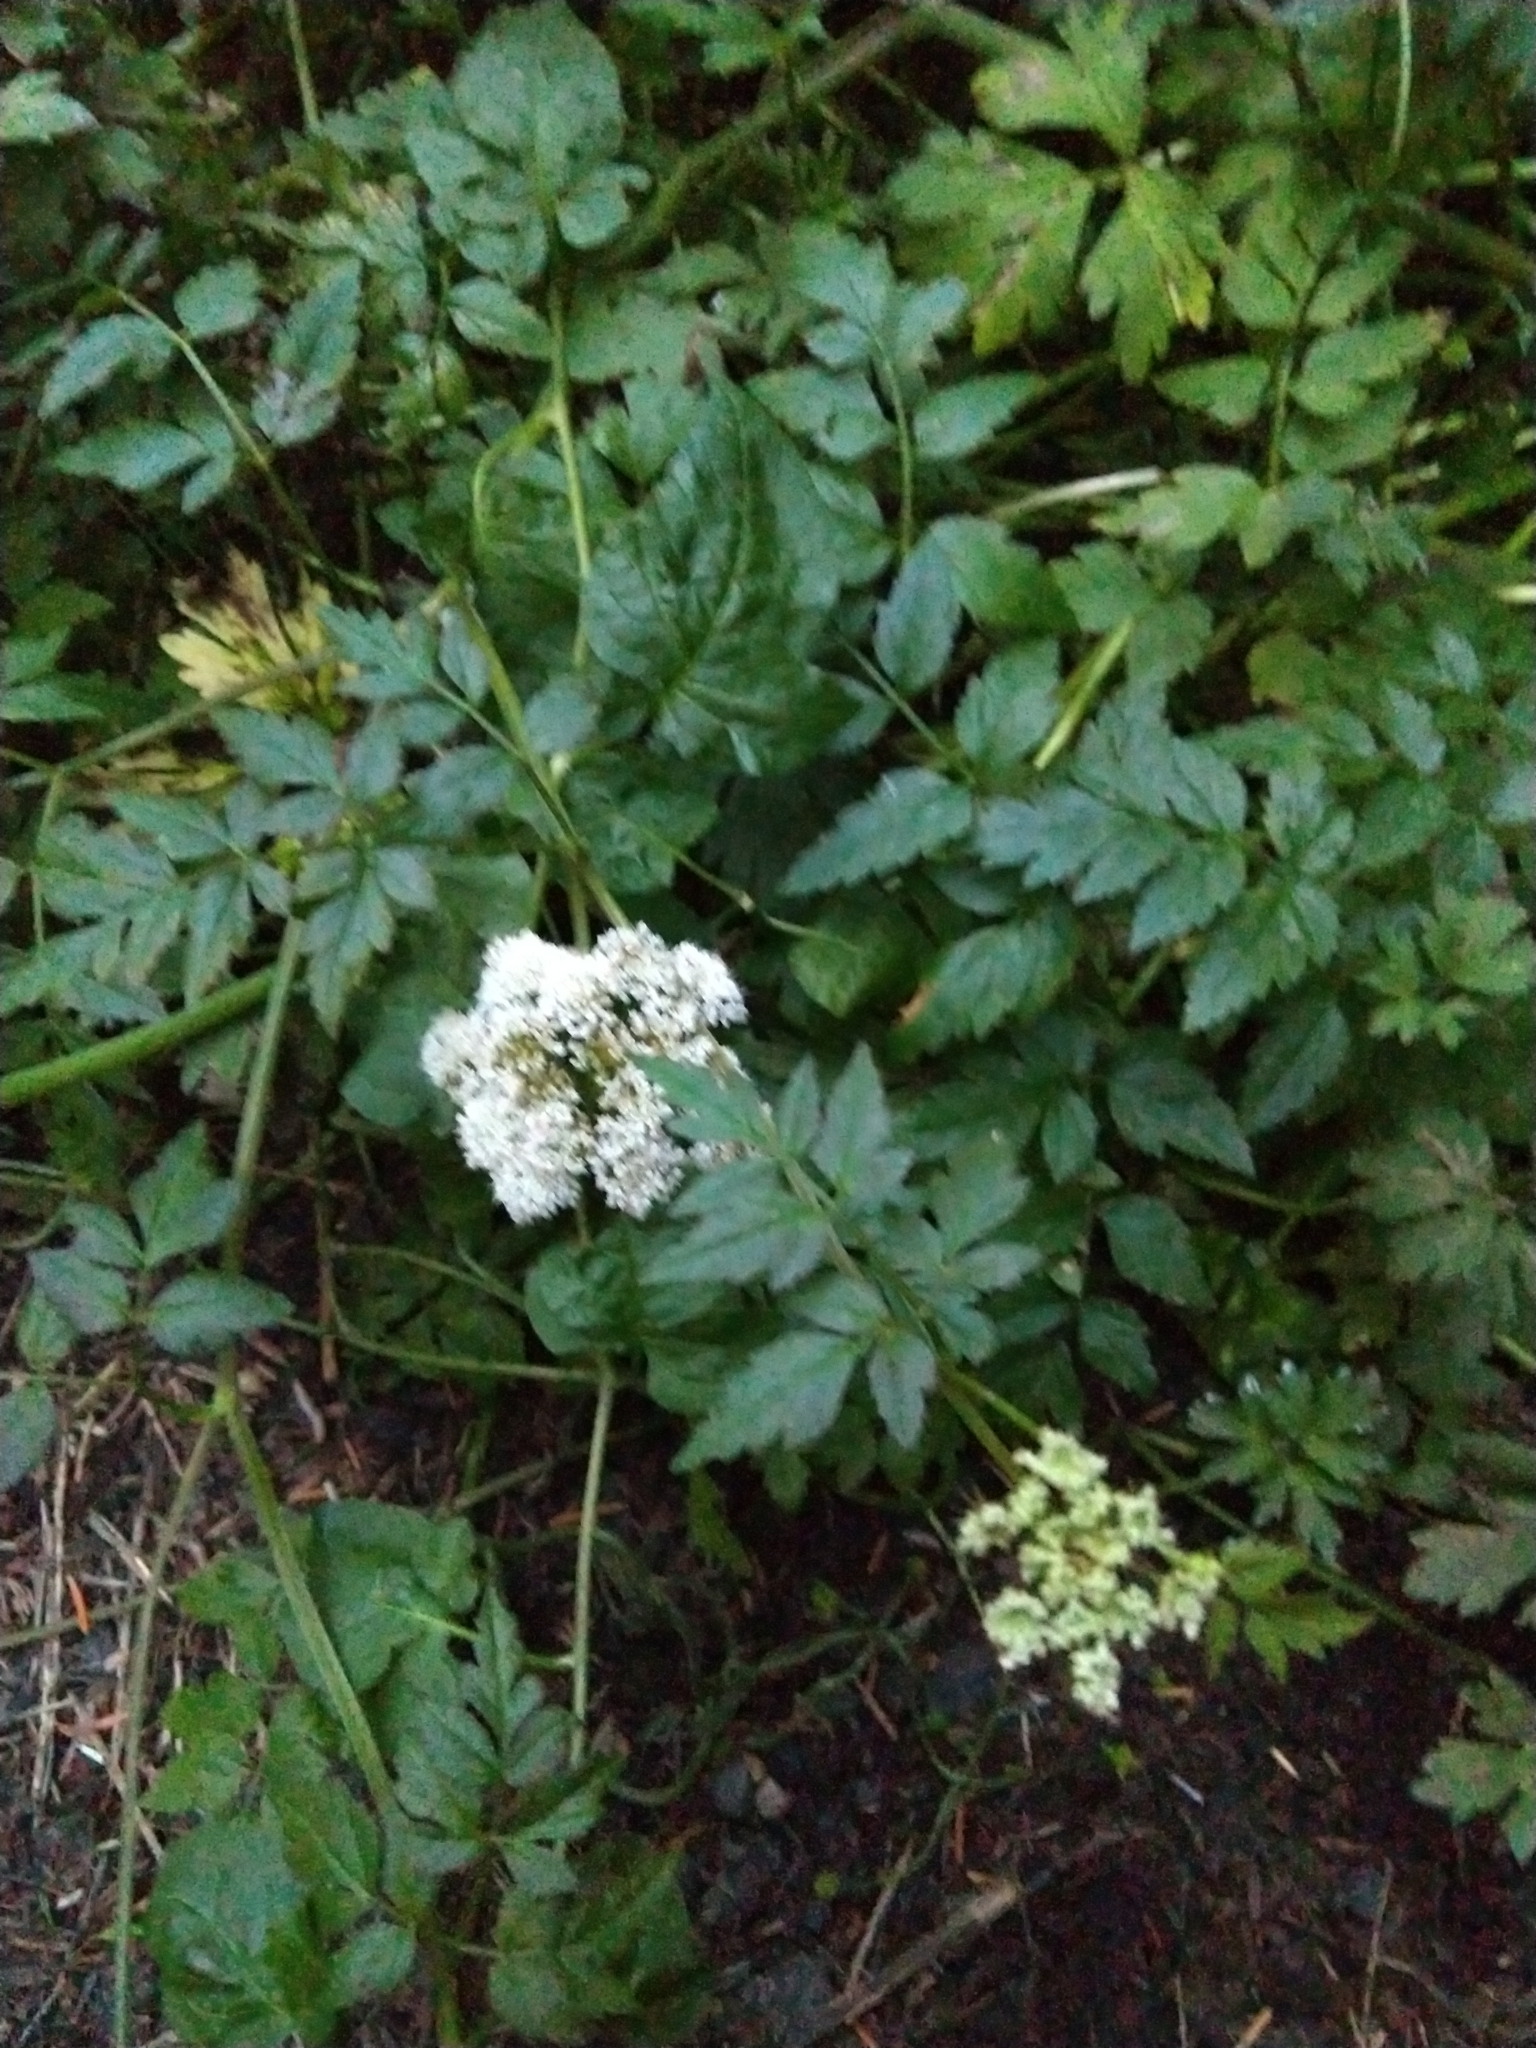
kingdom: Plantae
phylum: Tracheophyta
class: Magnoliopsida
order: Apiales
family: Apiaceae
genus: Oenanthe
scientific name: Oenanthe sarmentosa
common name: American water-parsley
